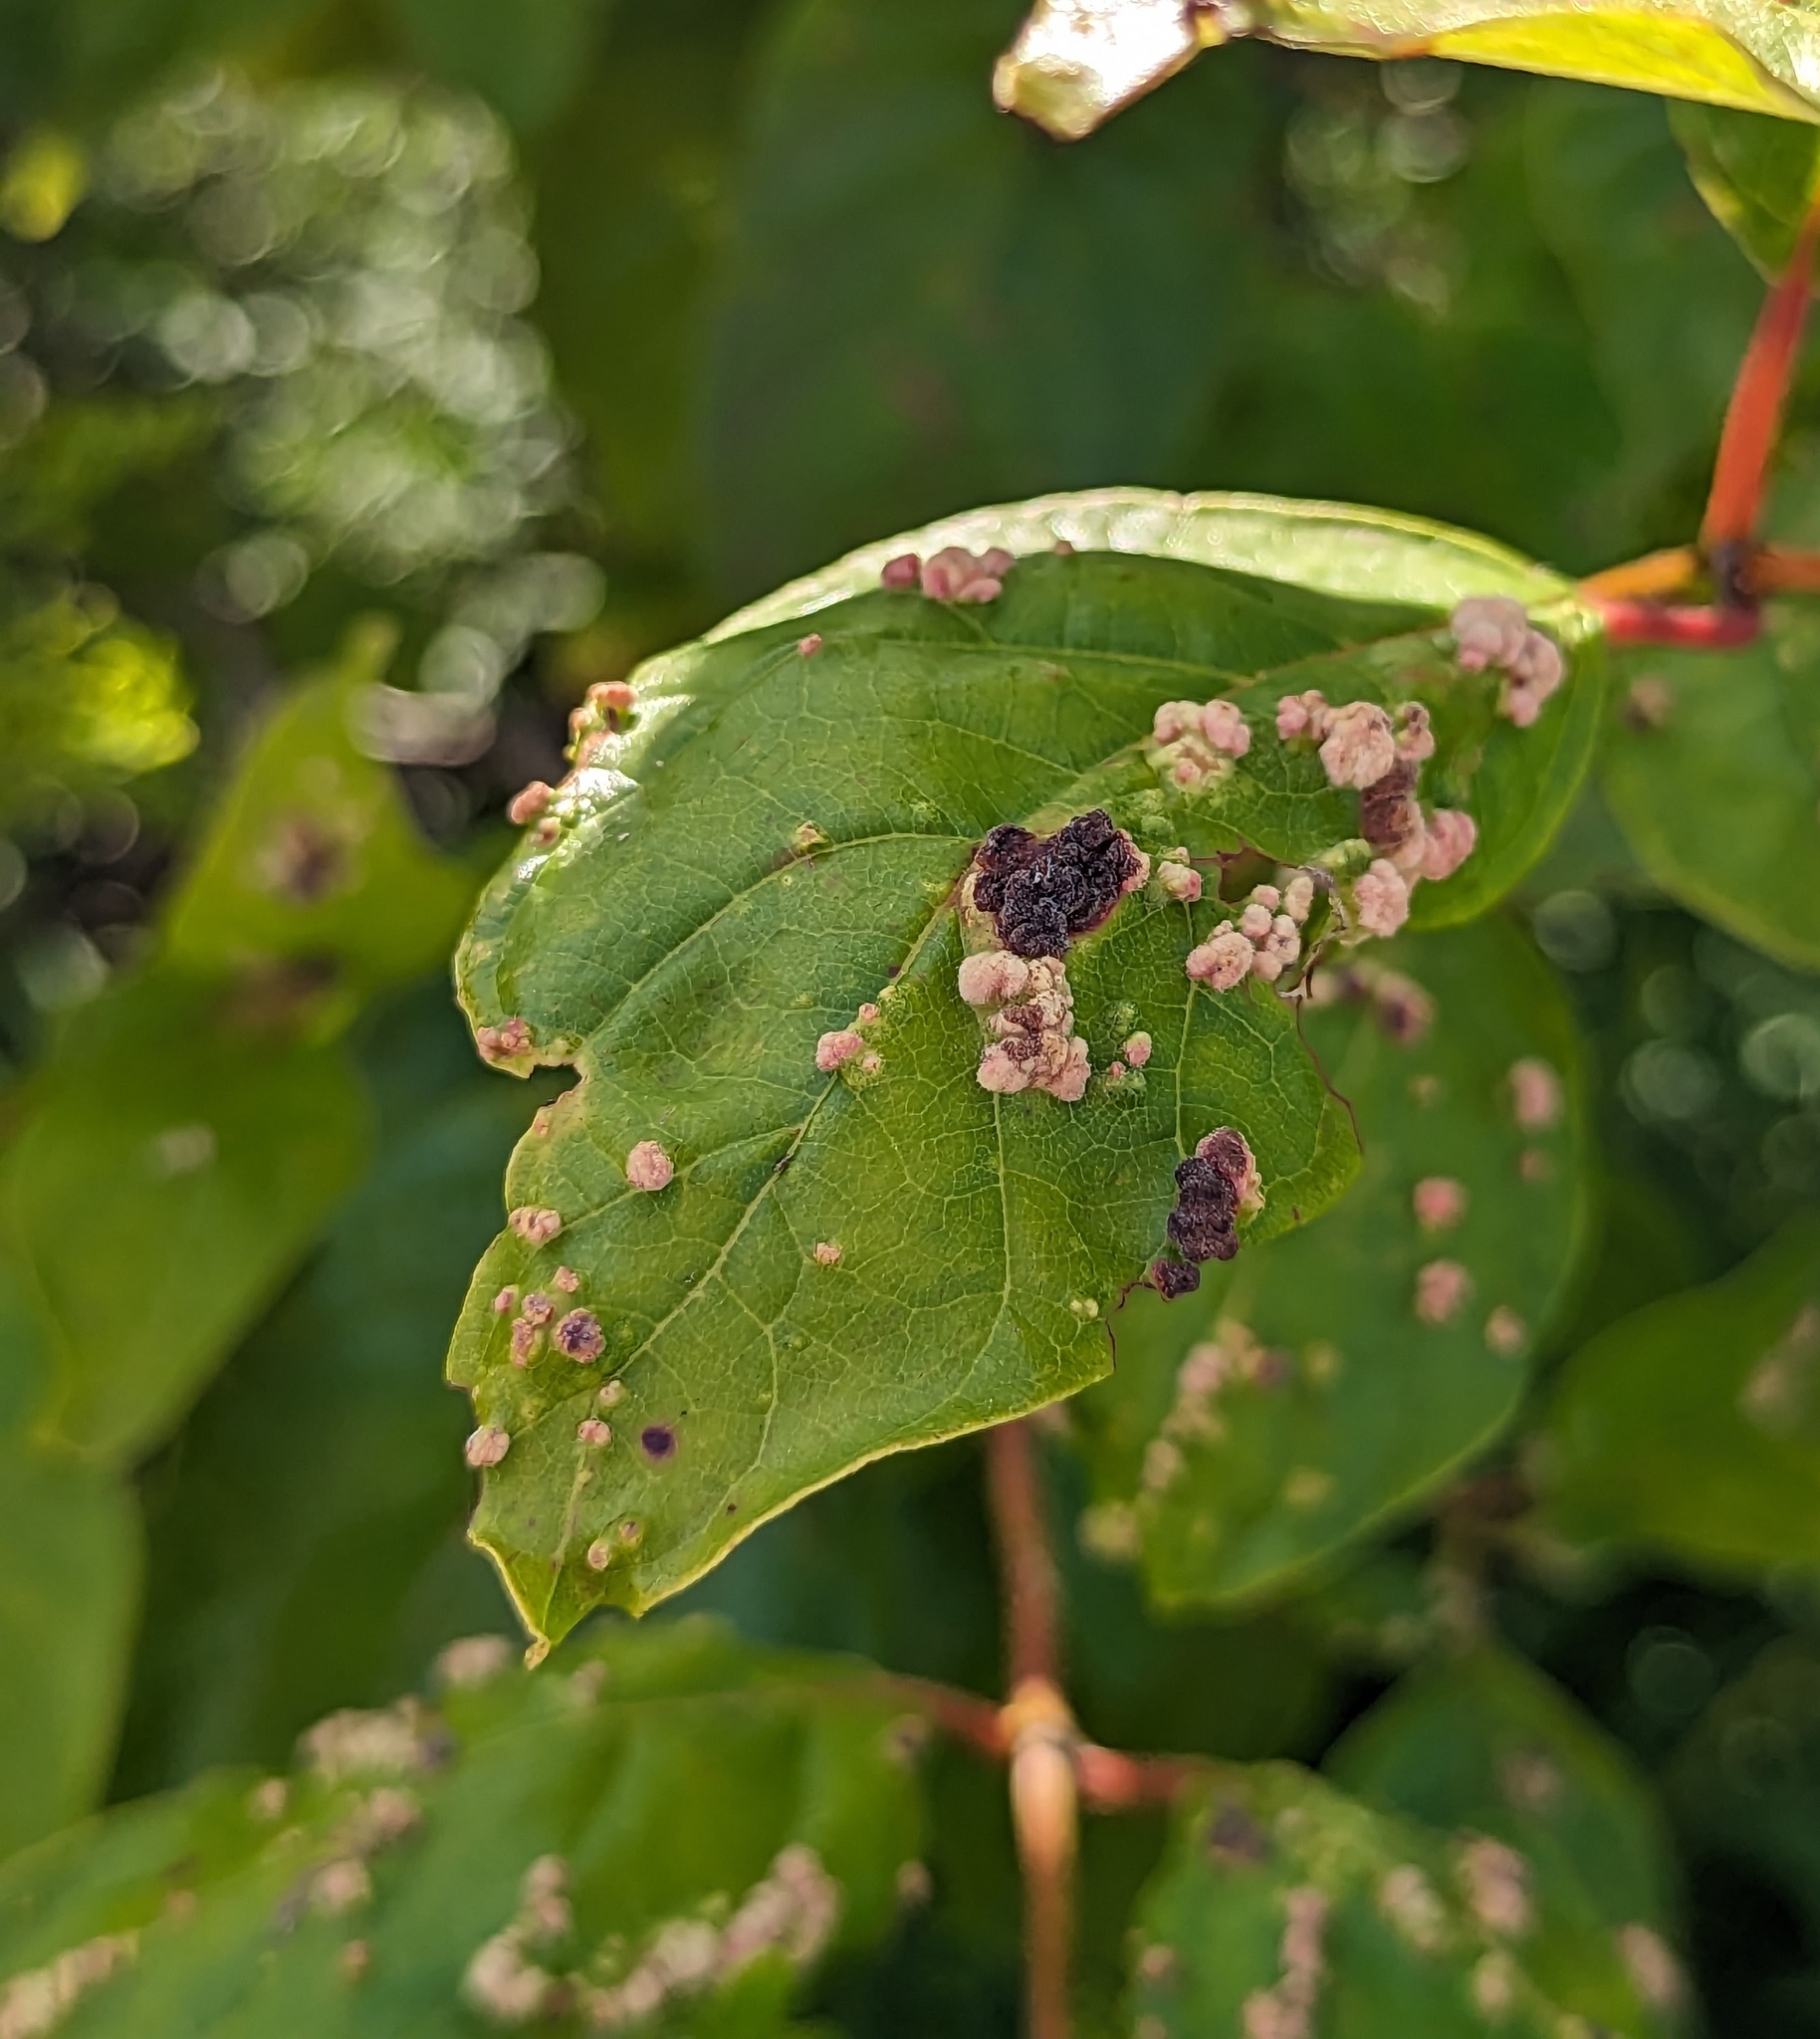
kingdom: Animalia
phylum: Arthropoda
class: Arachnida
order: Trombidiformes
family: Eriophyidae
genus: Aceria
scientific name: Aceria
